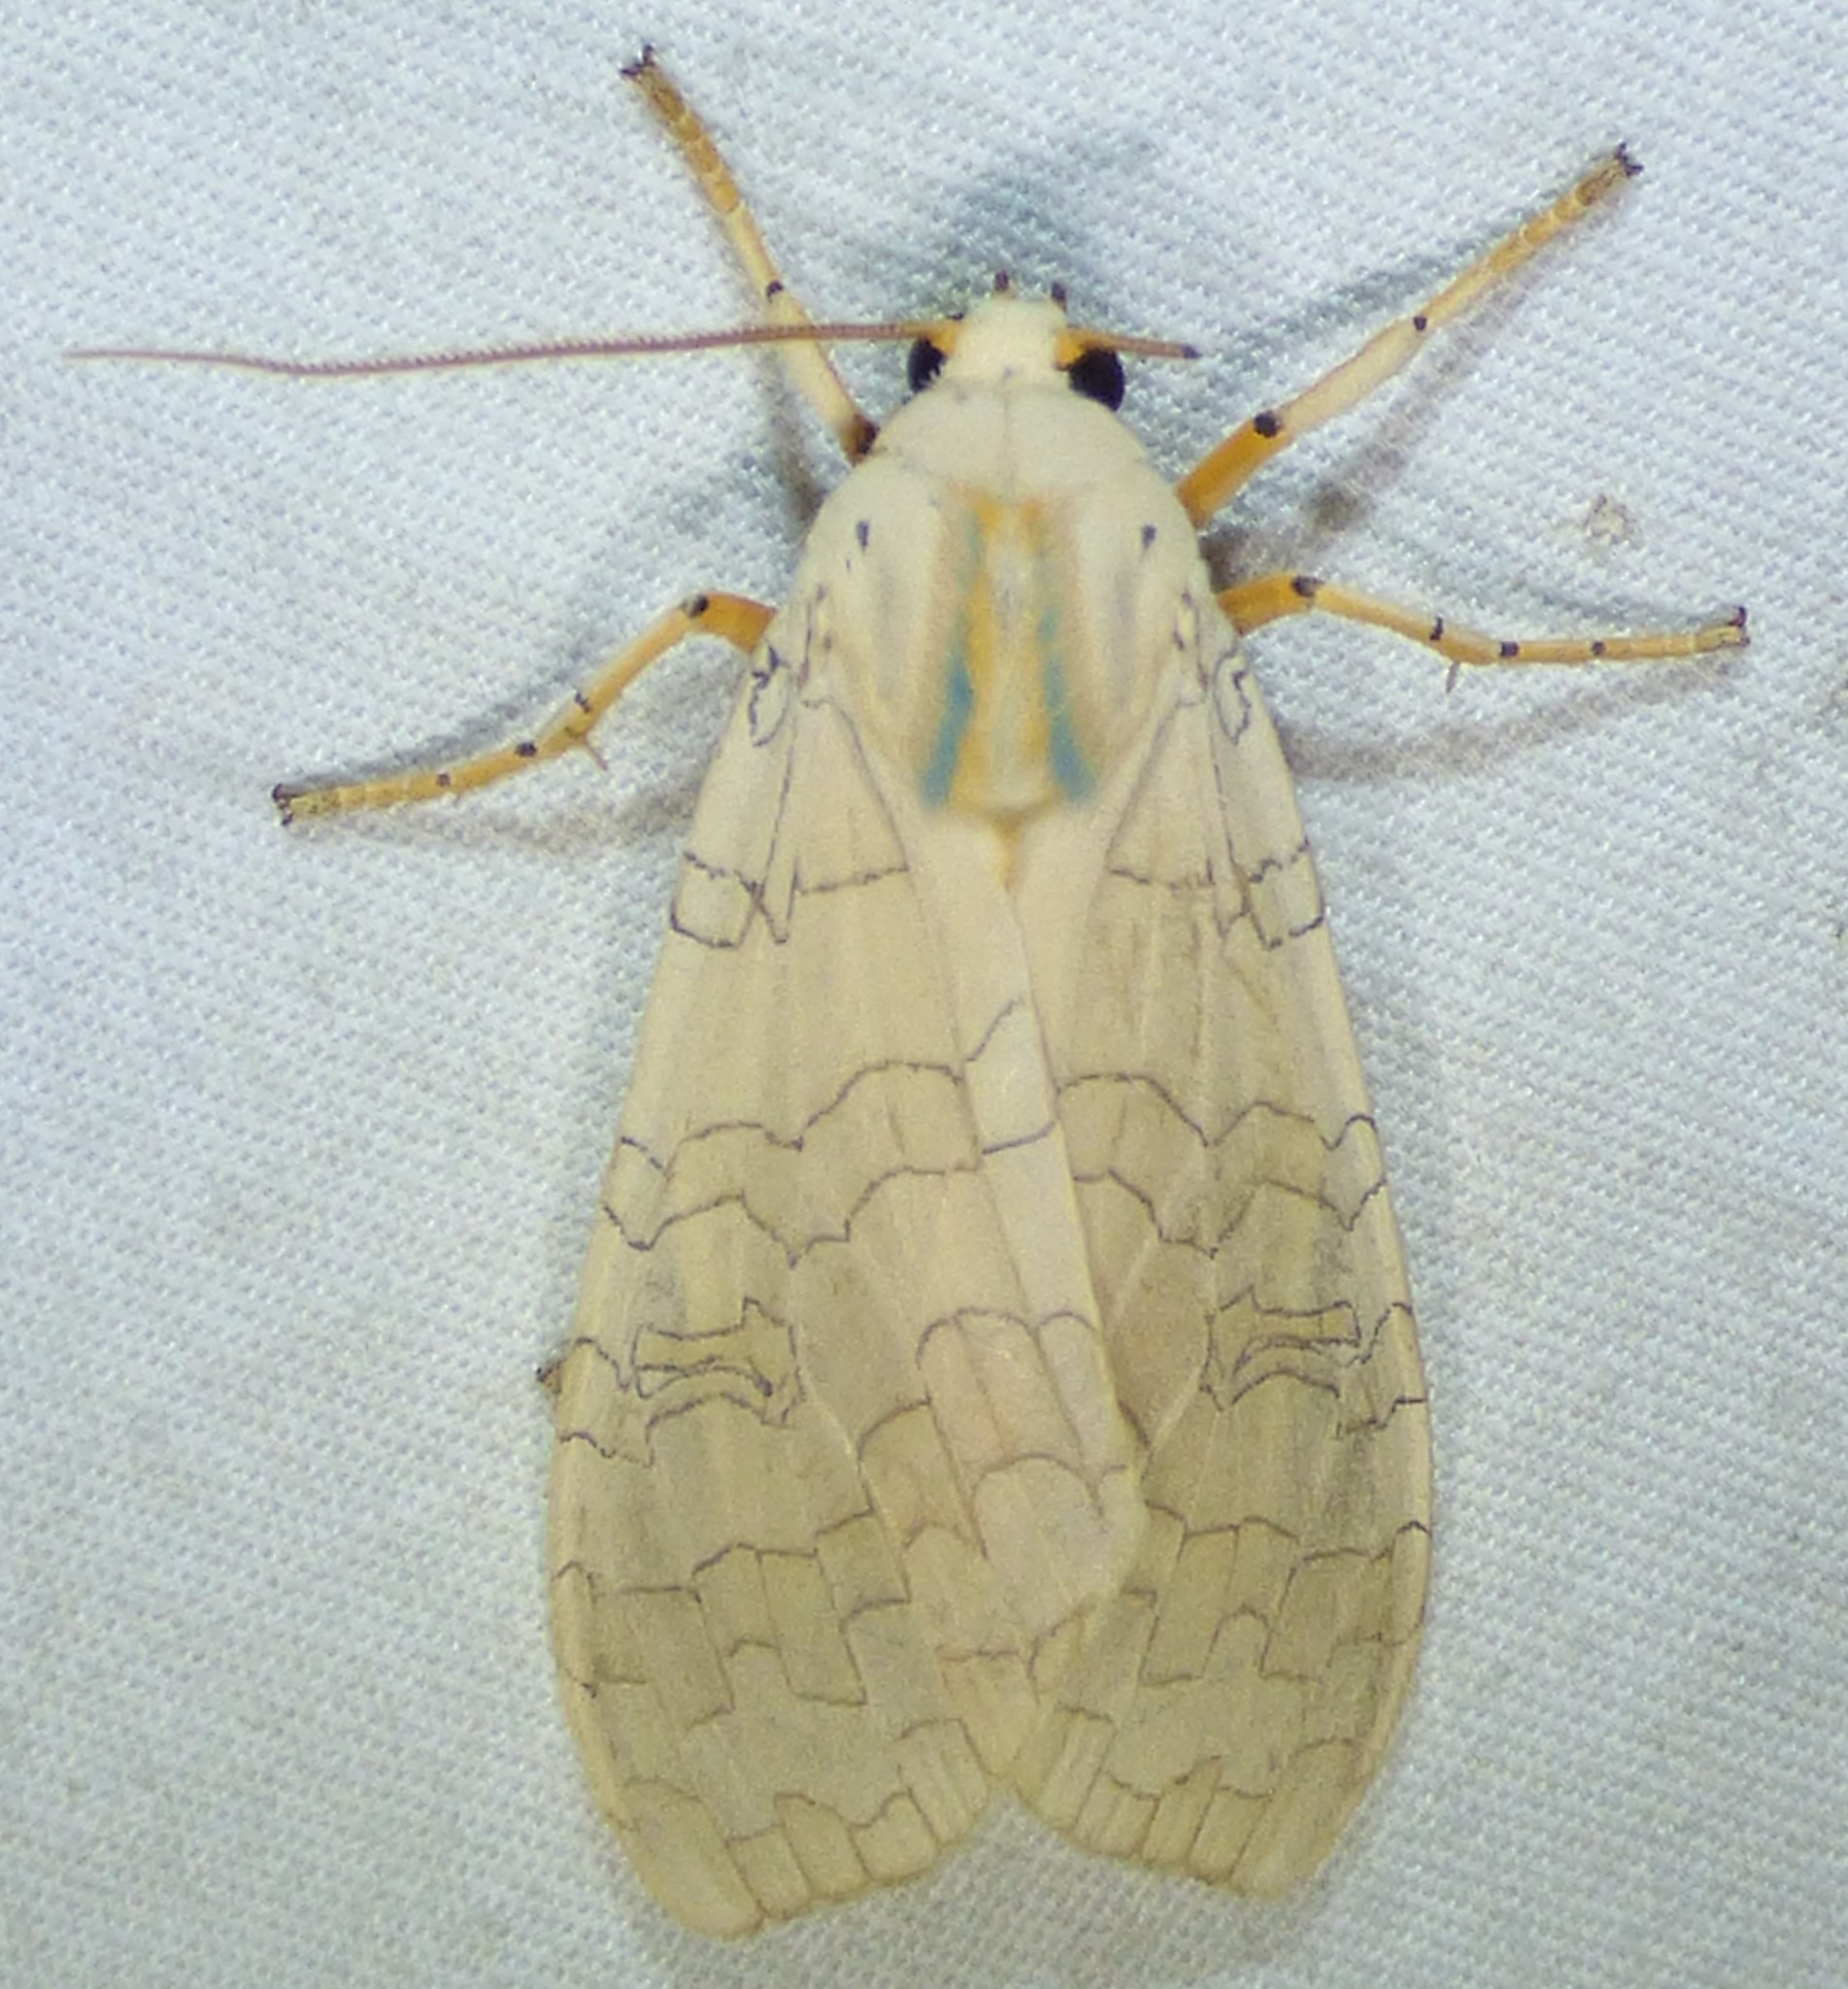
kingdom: Animalia
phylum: Arthropoda
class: Insecta
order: Lepidoptera
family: Erebidae
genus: Halysidota
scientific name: Halysidota
